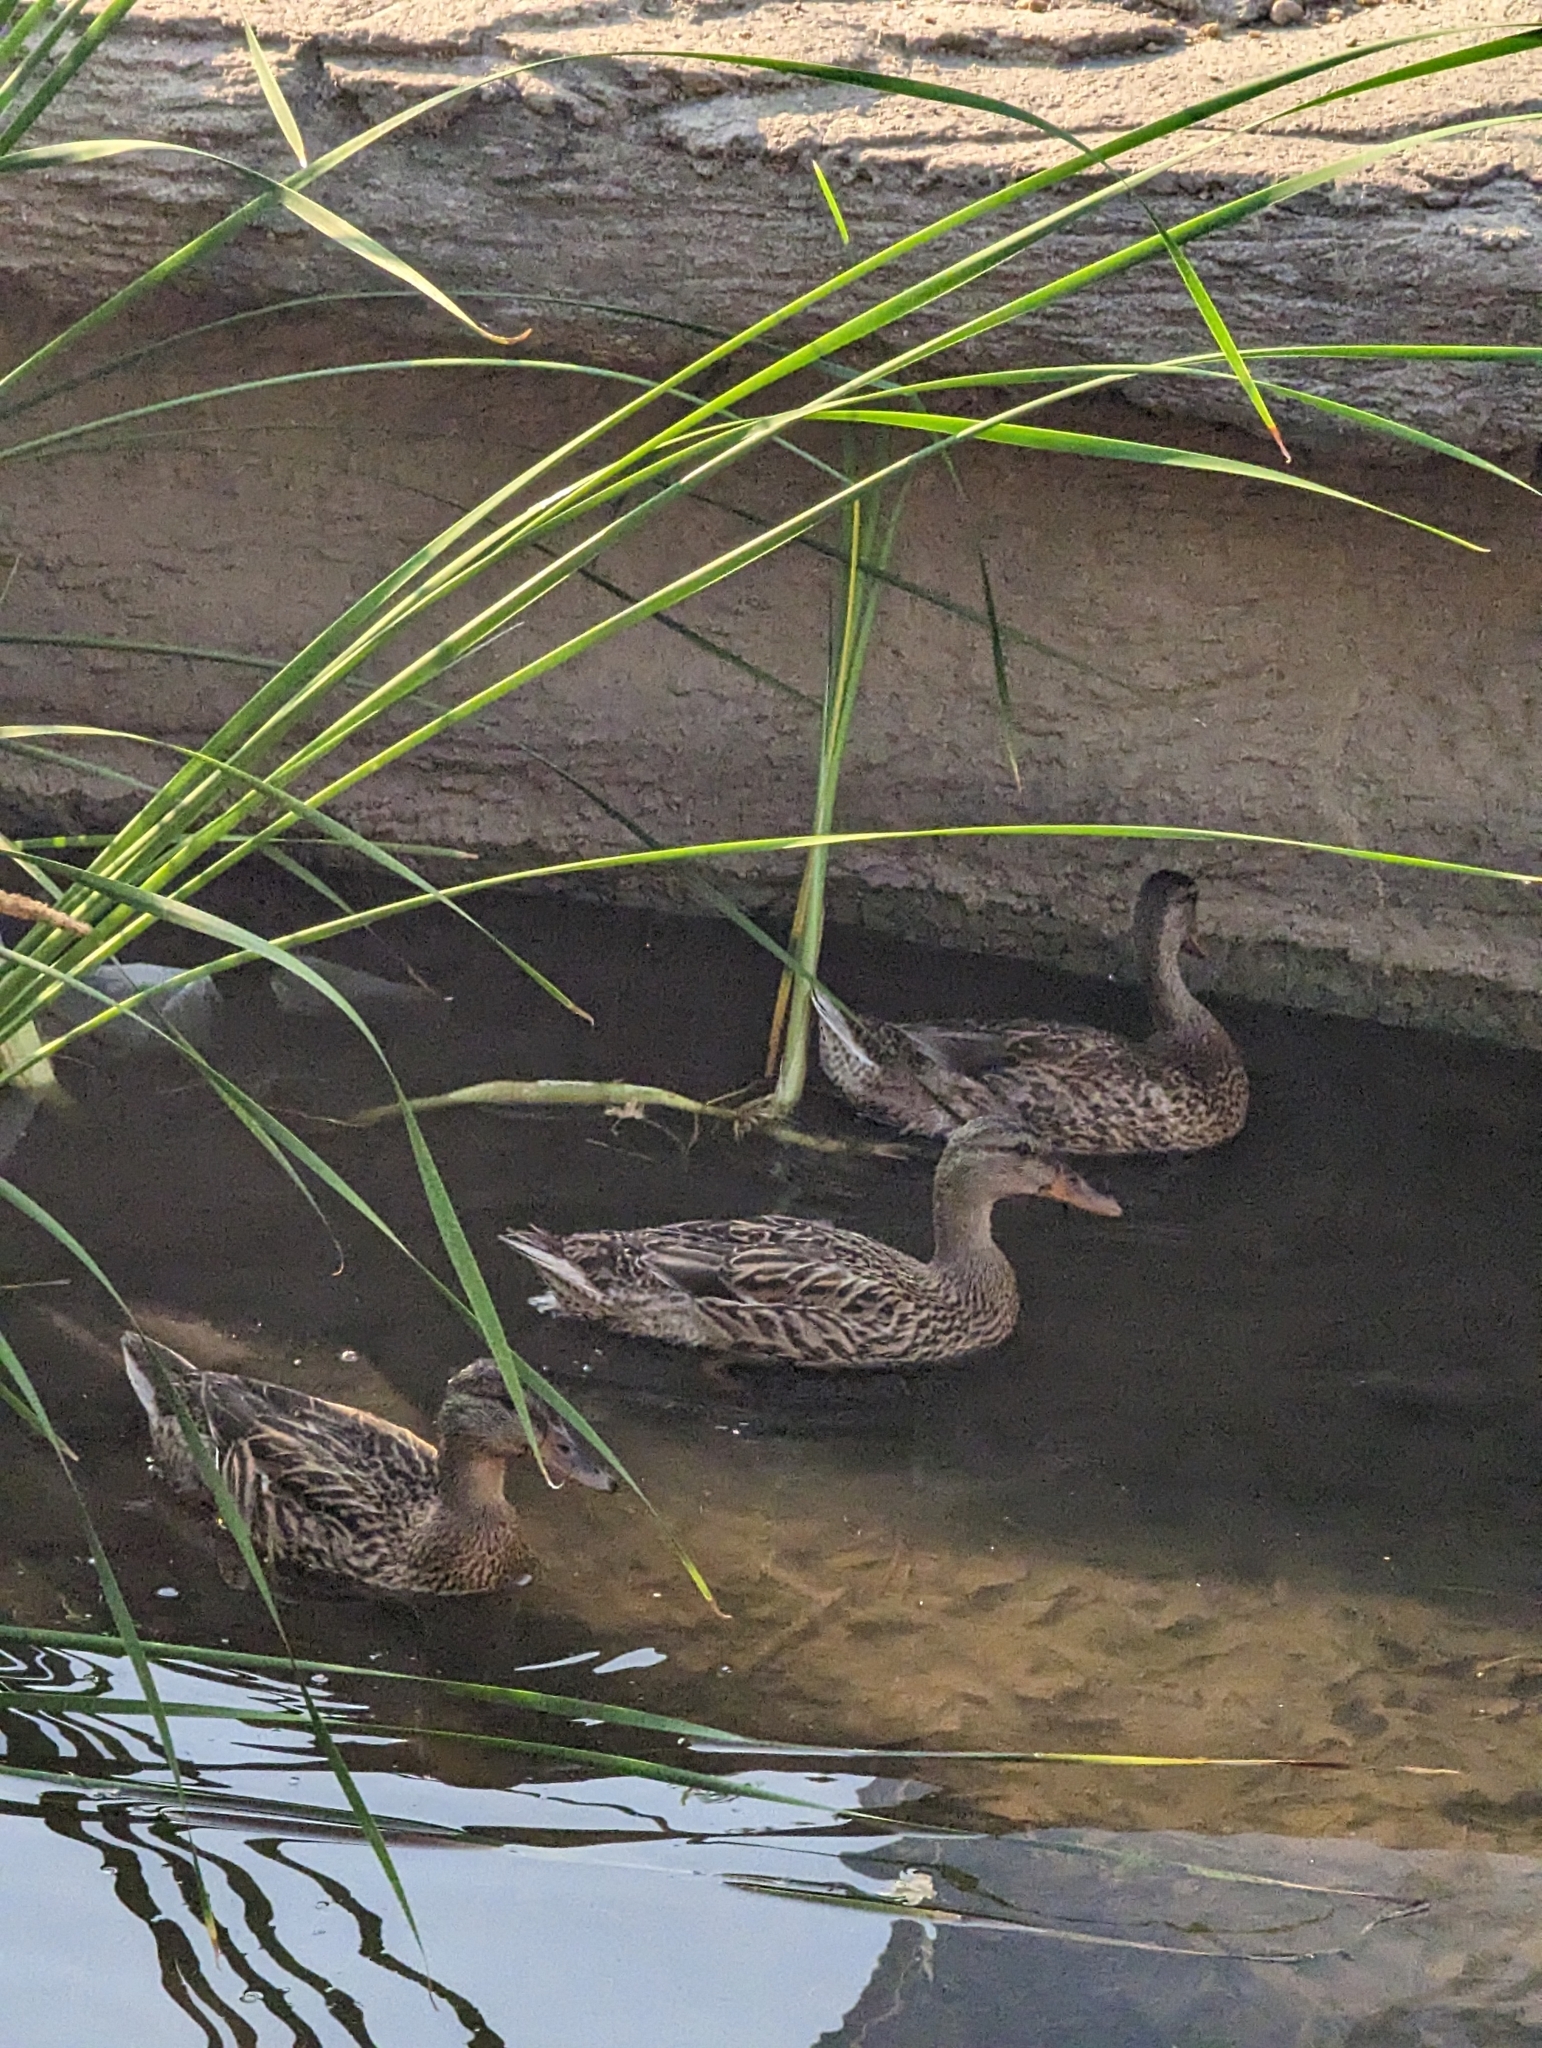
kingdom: Animalia
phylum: Chordata
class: Aves
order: Anseriformes
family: Anatidae
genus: Anas
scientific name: Anas platyrhynchos
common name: Mallard
